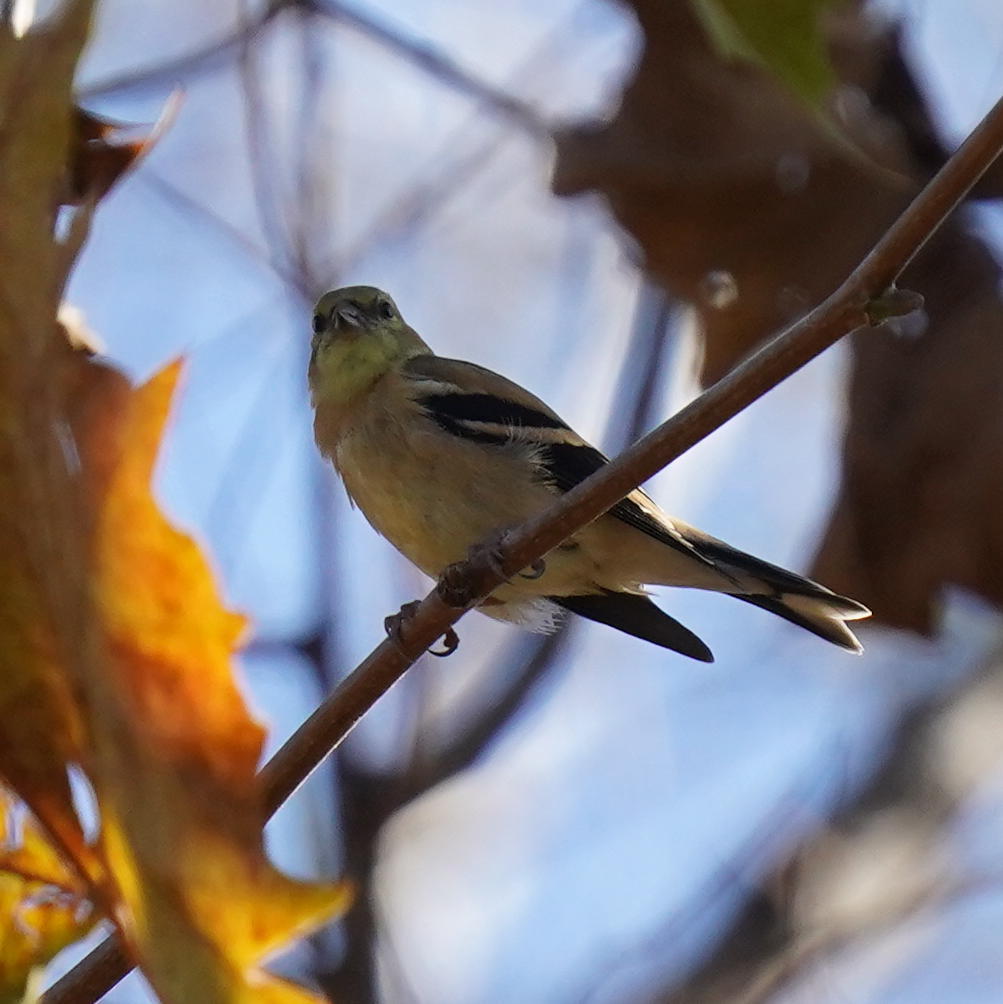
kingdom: Animalia
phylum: Chordata
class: Aves
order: Passeriformes
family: Fringillidae
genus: Spinus
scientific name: Spinus tristis
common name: American goldfinch
